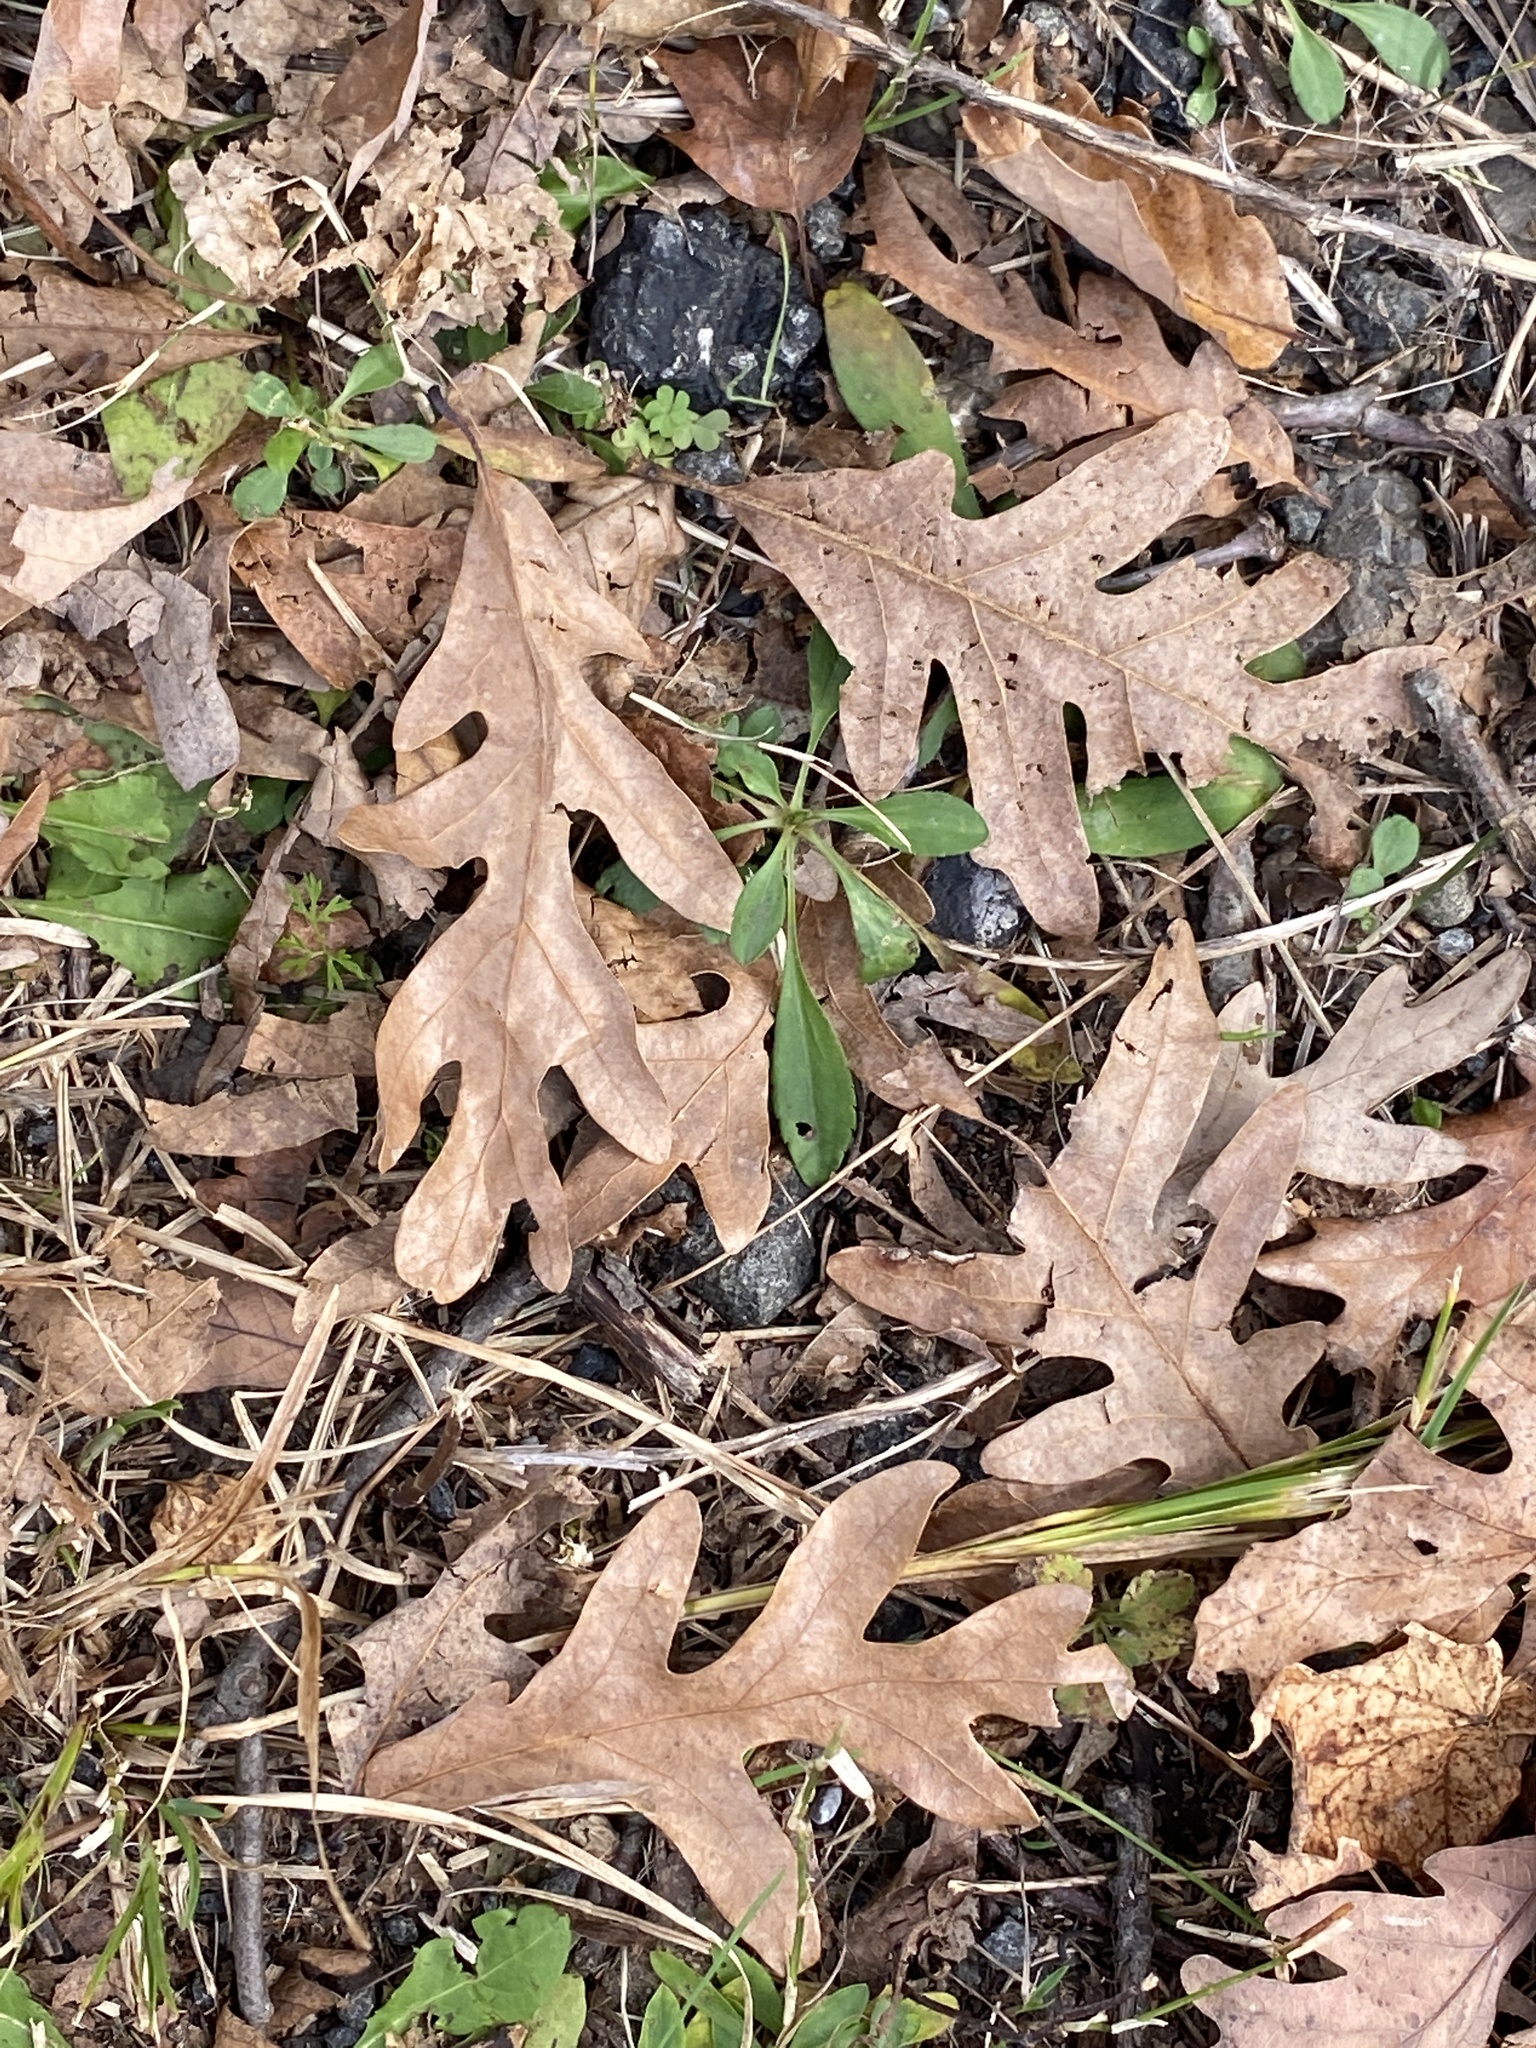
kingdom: Plantae
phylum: Tracheophyta
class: Magnoliopsida
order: Fagales
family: Fagaceae
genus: Quercus
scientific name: Quercus alba
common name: White oak
